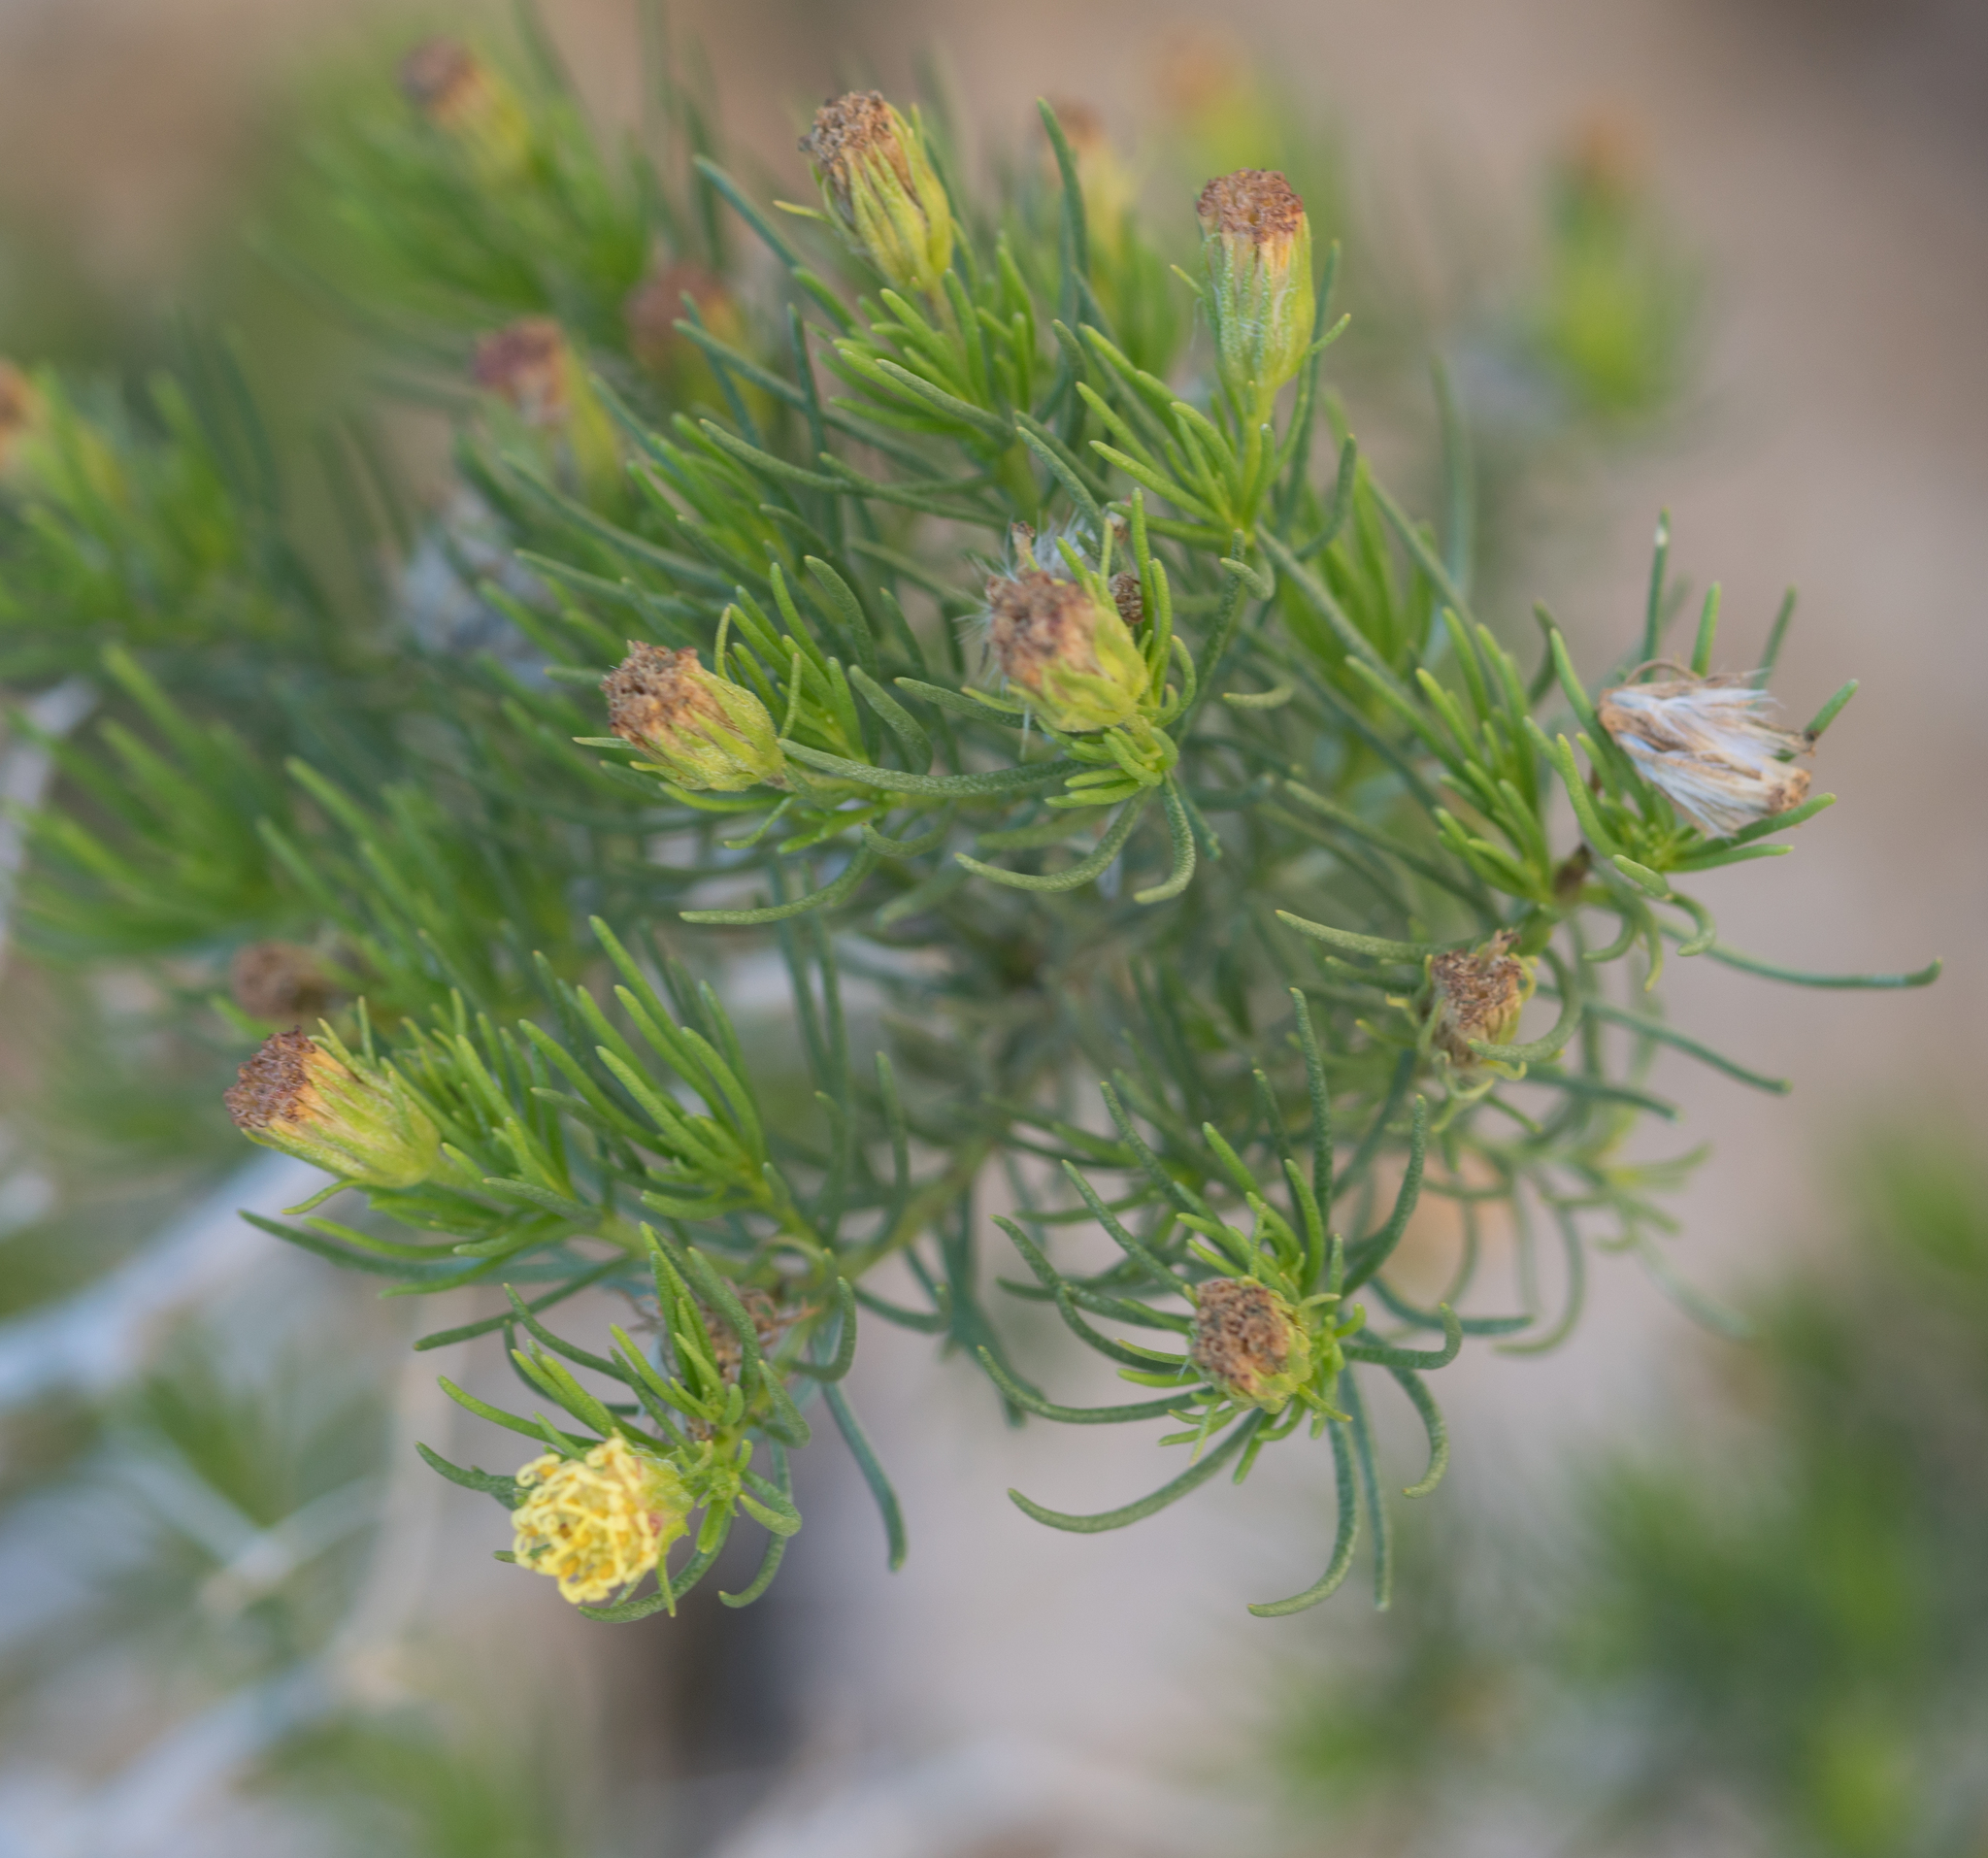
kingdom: Plantae
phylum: Tracheophyta
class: Magnoliopsida
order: Asterales
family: Asteraceae
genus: Peucephyllum
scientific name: Peucephyllum schottii
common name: Pygmy-cedar
